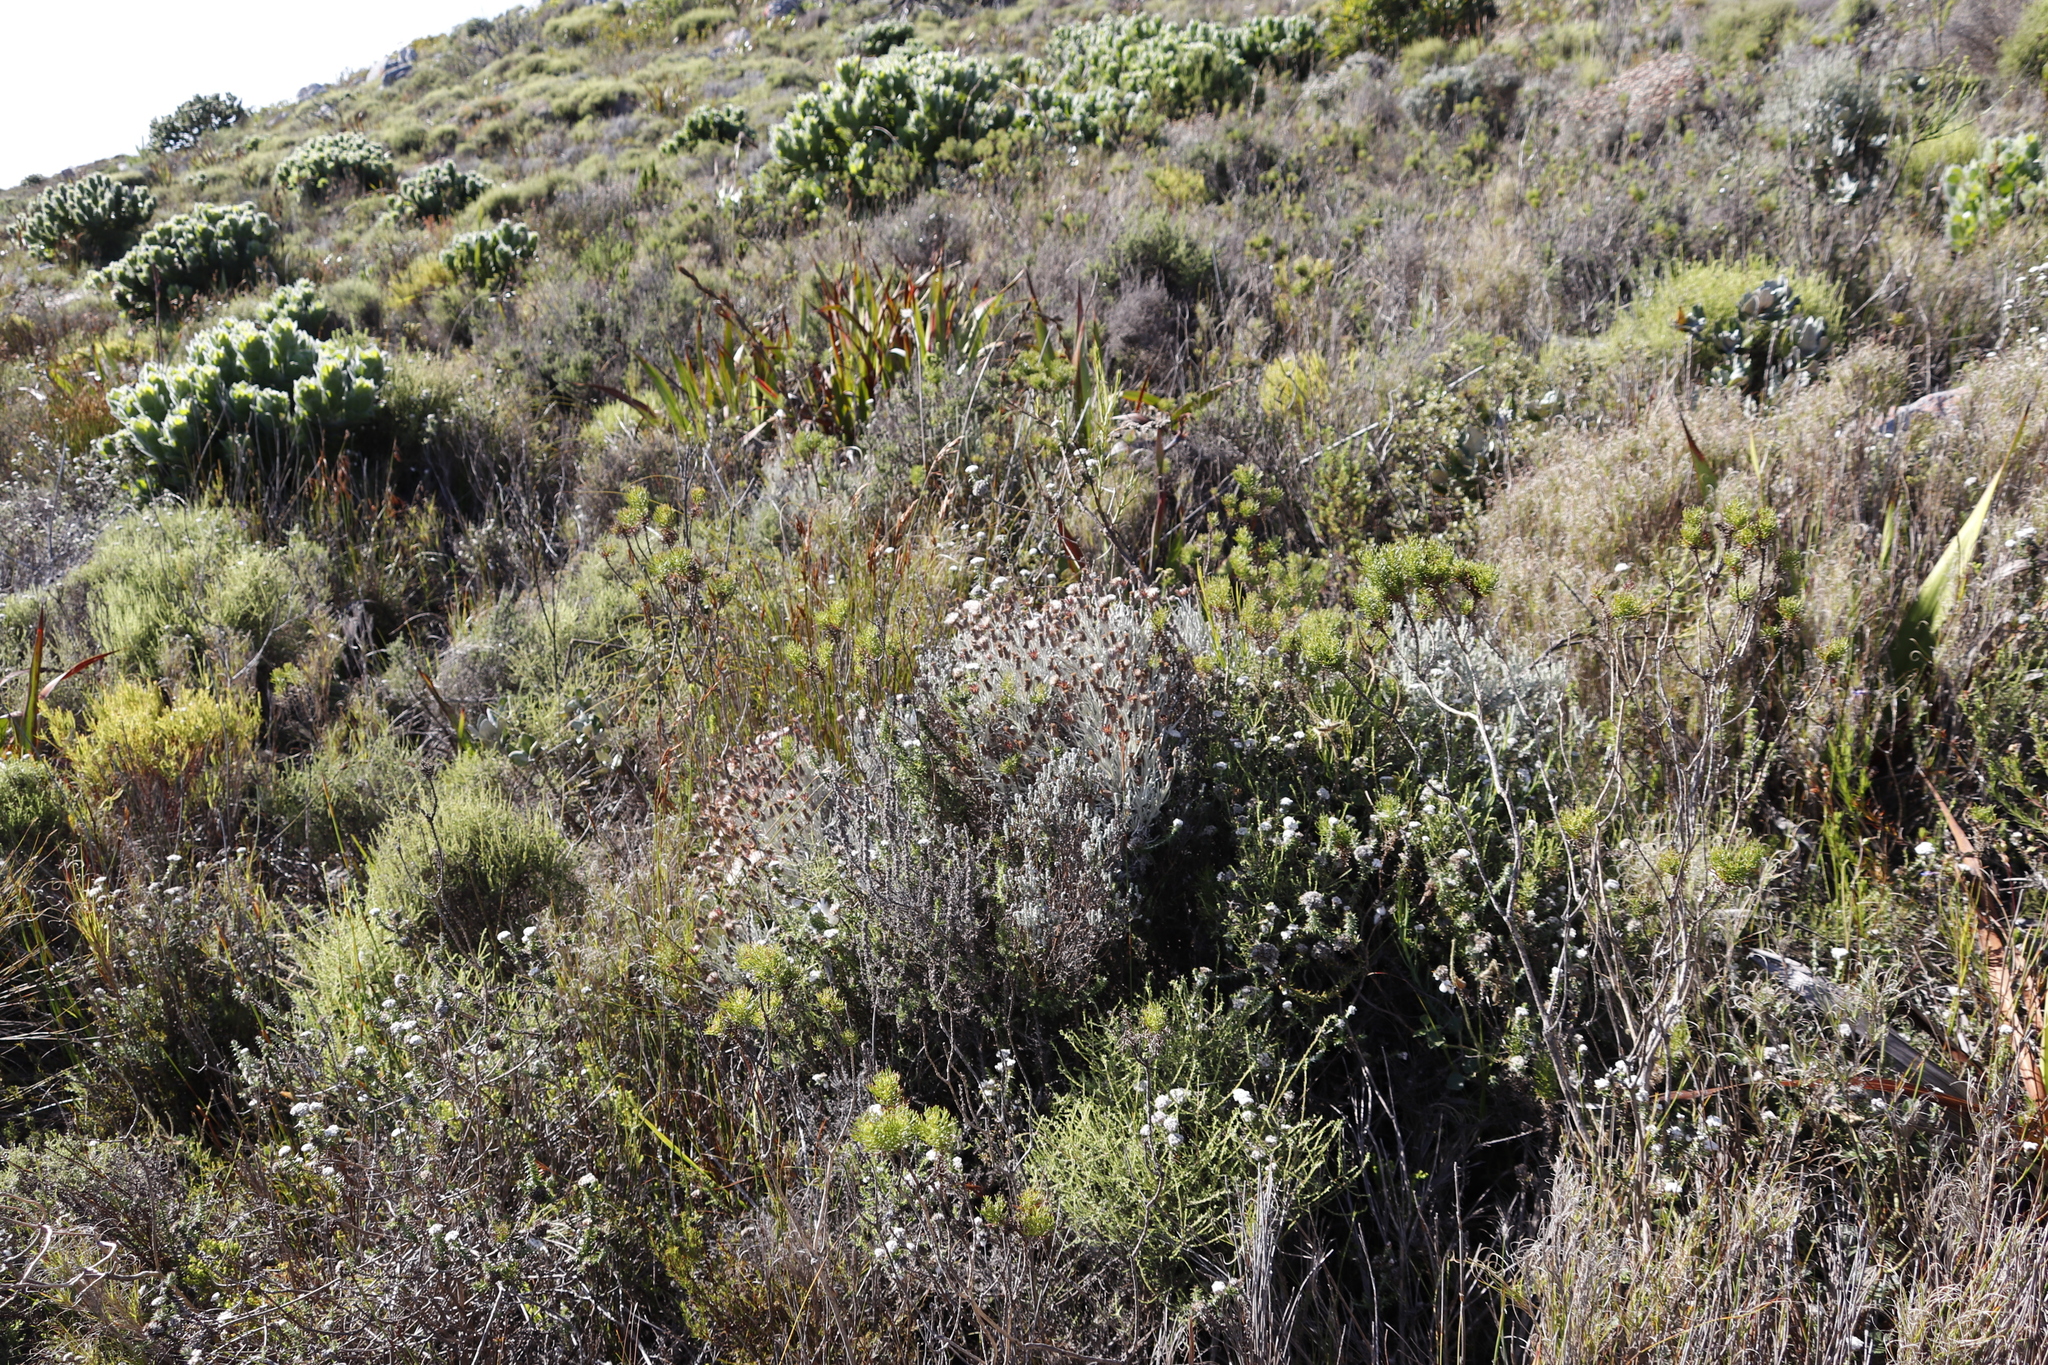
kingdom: Plantae
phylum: Tracheophyta
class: Magnoliopsida
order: Asterales
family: Asteraceae
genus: Syncarpha
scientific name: Syncarpha gnaphaloides
